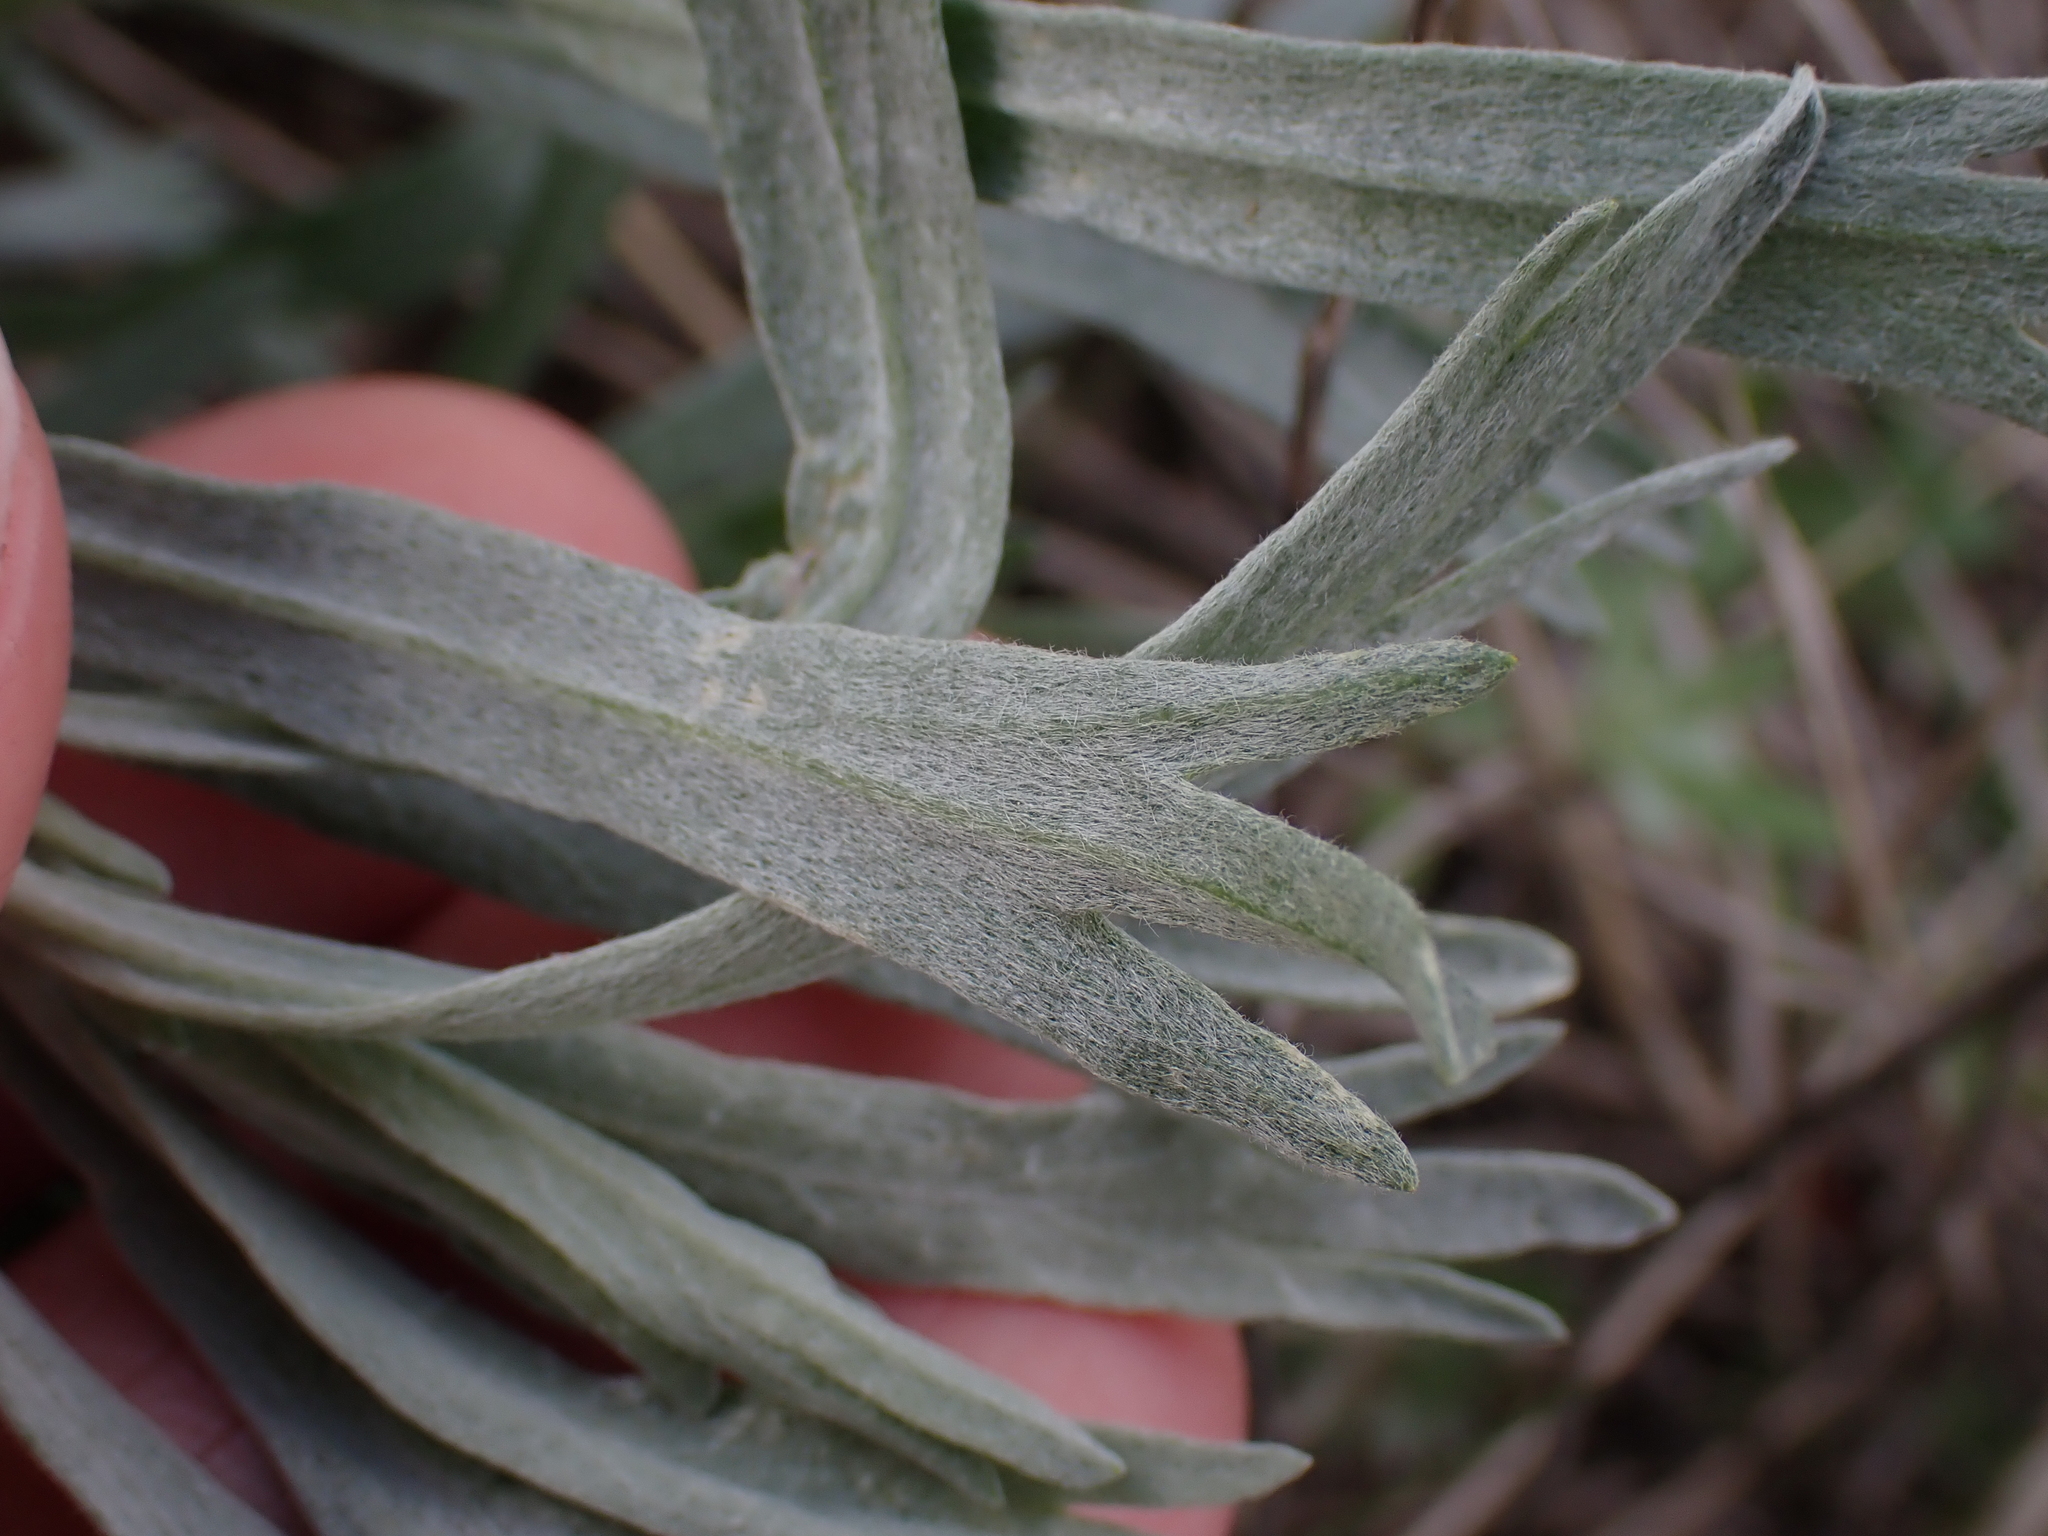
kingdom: Plantae
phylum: Tracheophyta
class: Magnoliopsida
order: Asterales
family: Asteraceae
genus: Artemisia
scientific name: Artemisia cana
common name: Silver sagebrush
